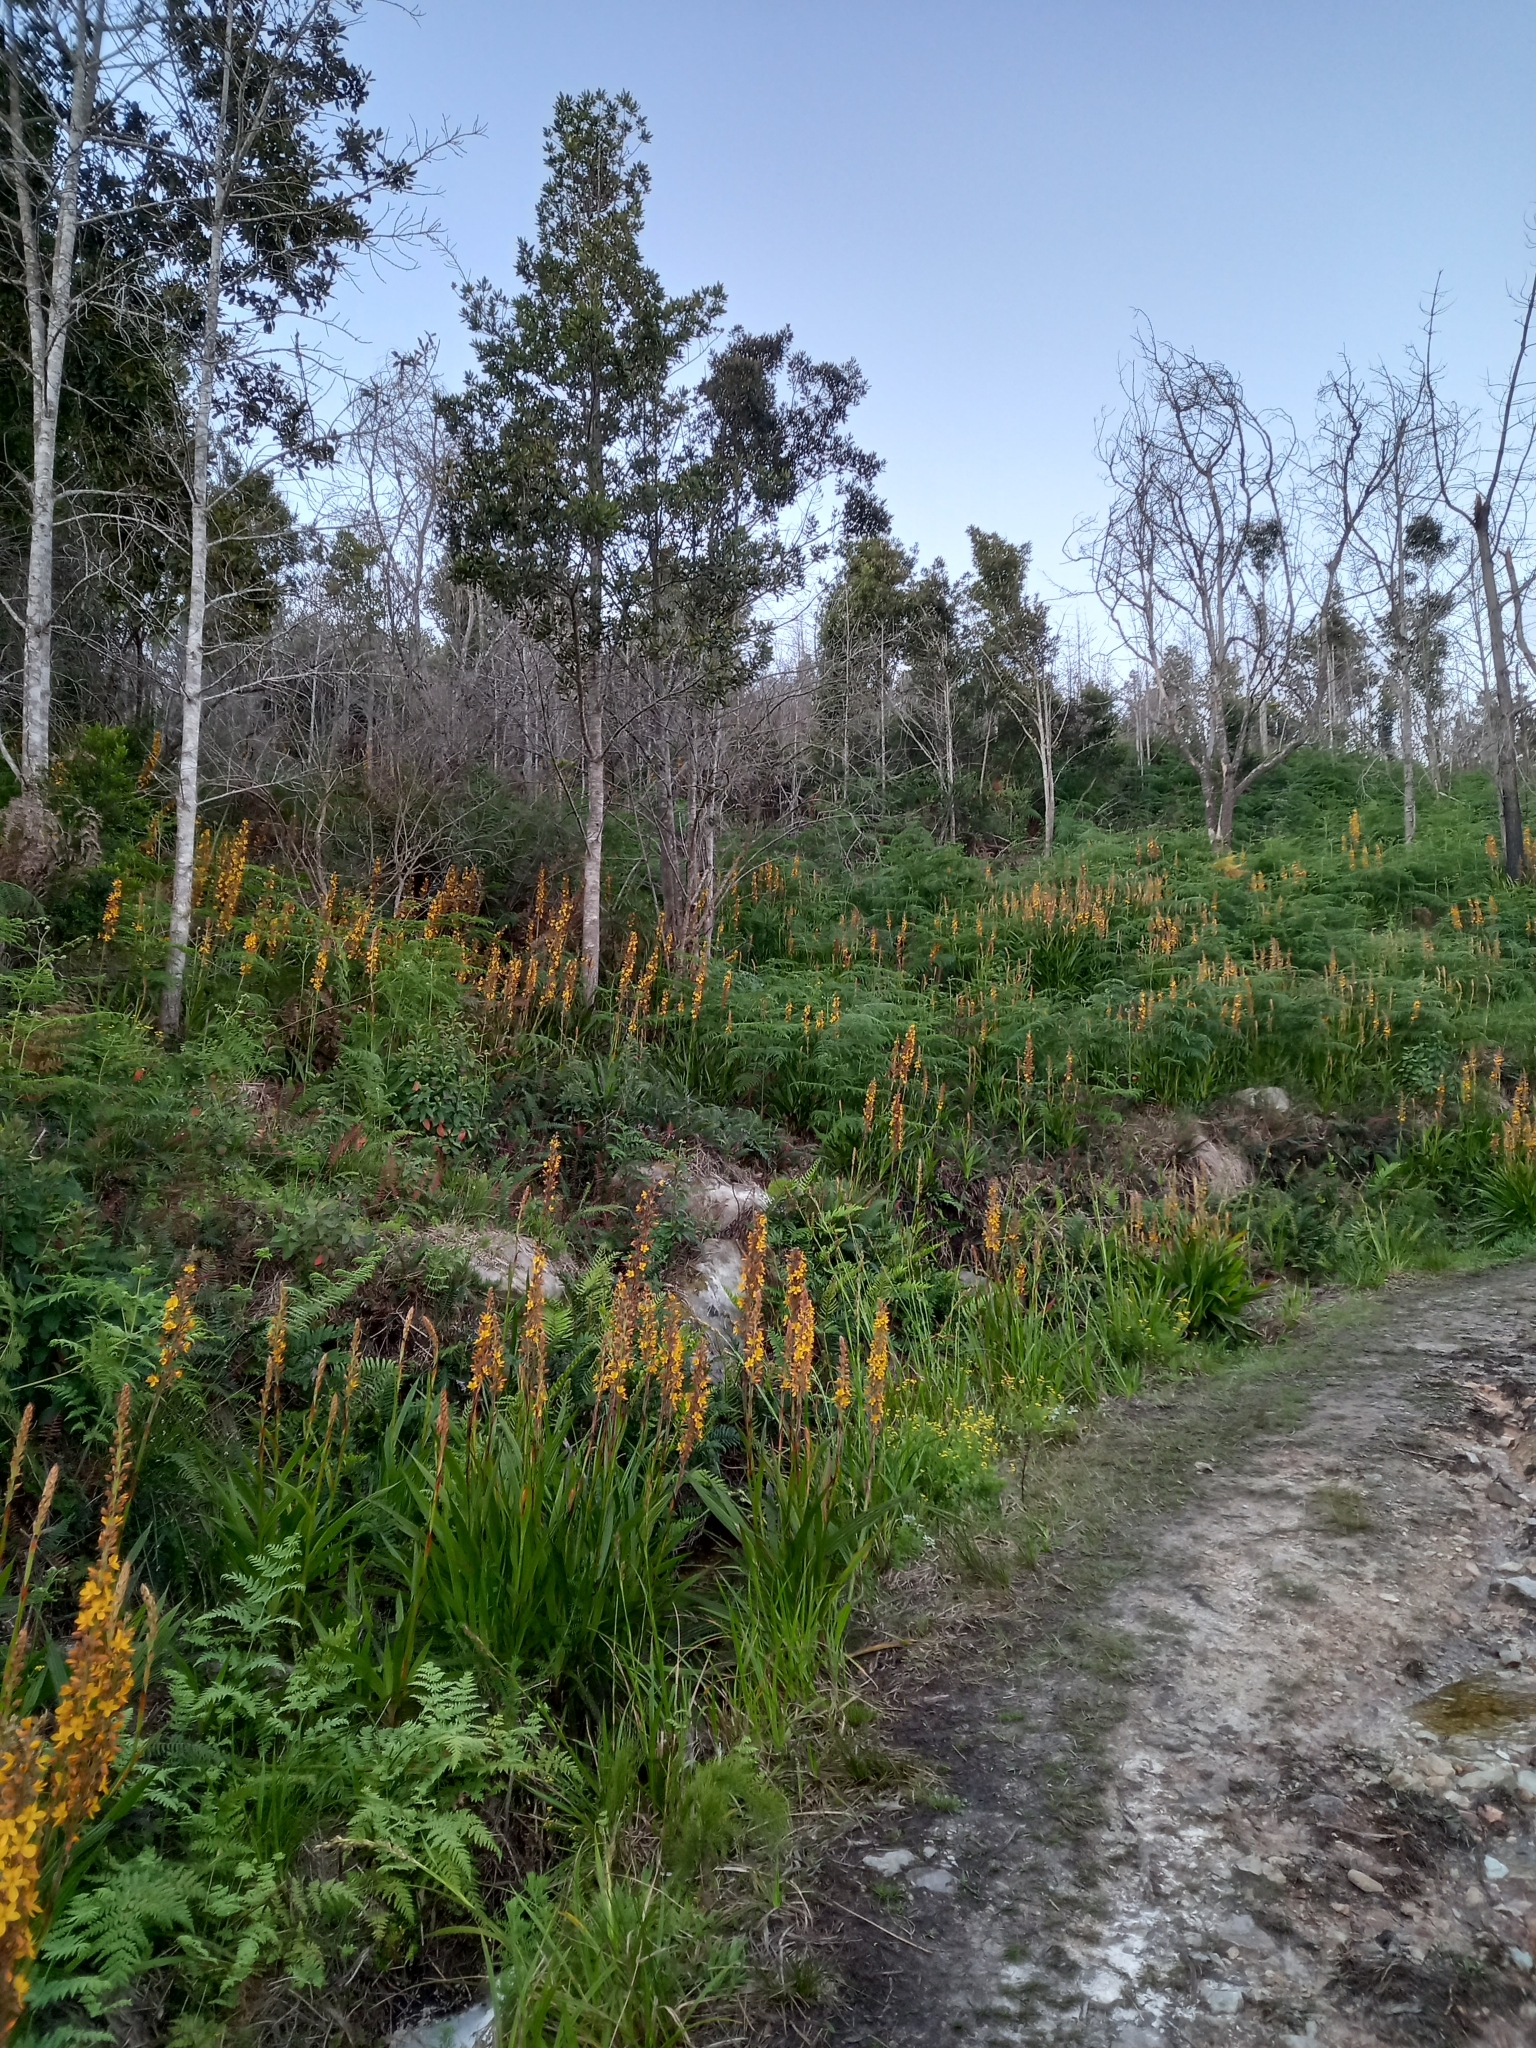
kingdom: Plantae
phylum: Tracheophyta
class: Liliopsida
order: Commelinales
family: Haemodoraceae
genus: Wachendorfia
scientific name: Wachendorfia thyrsiflora
